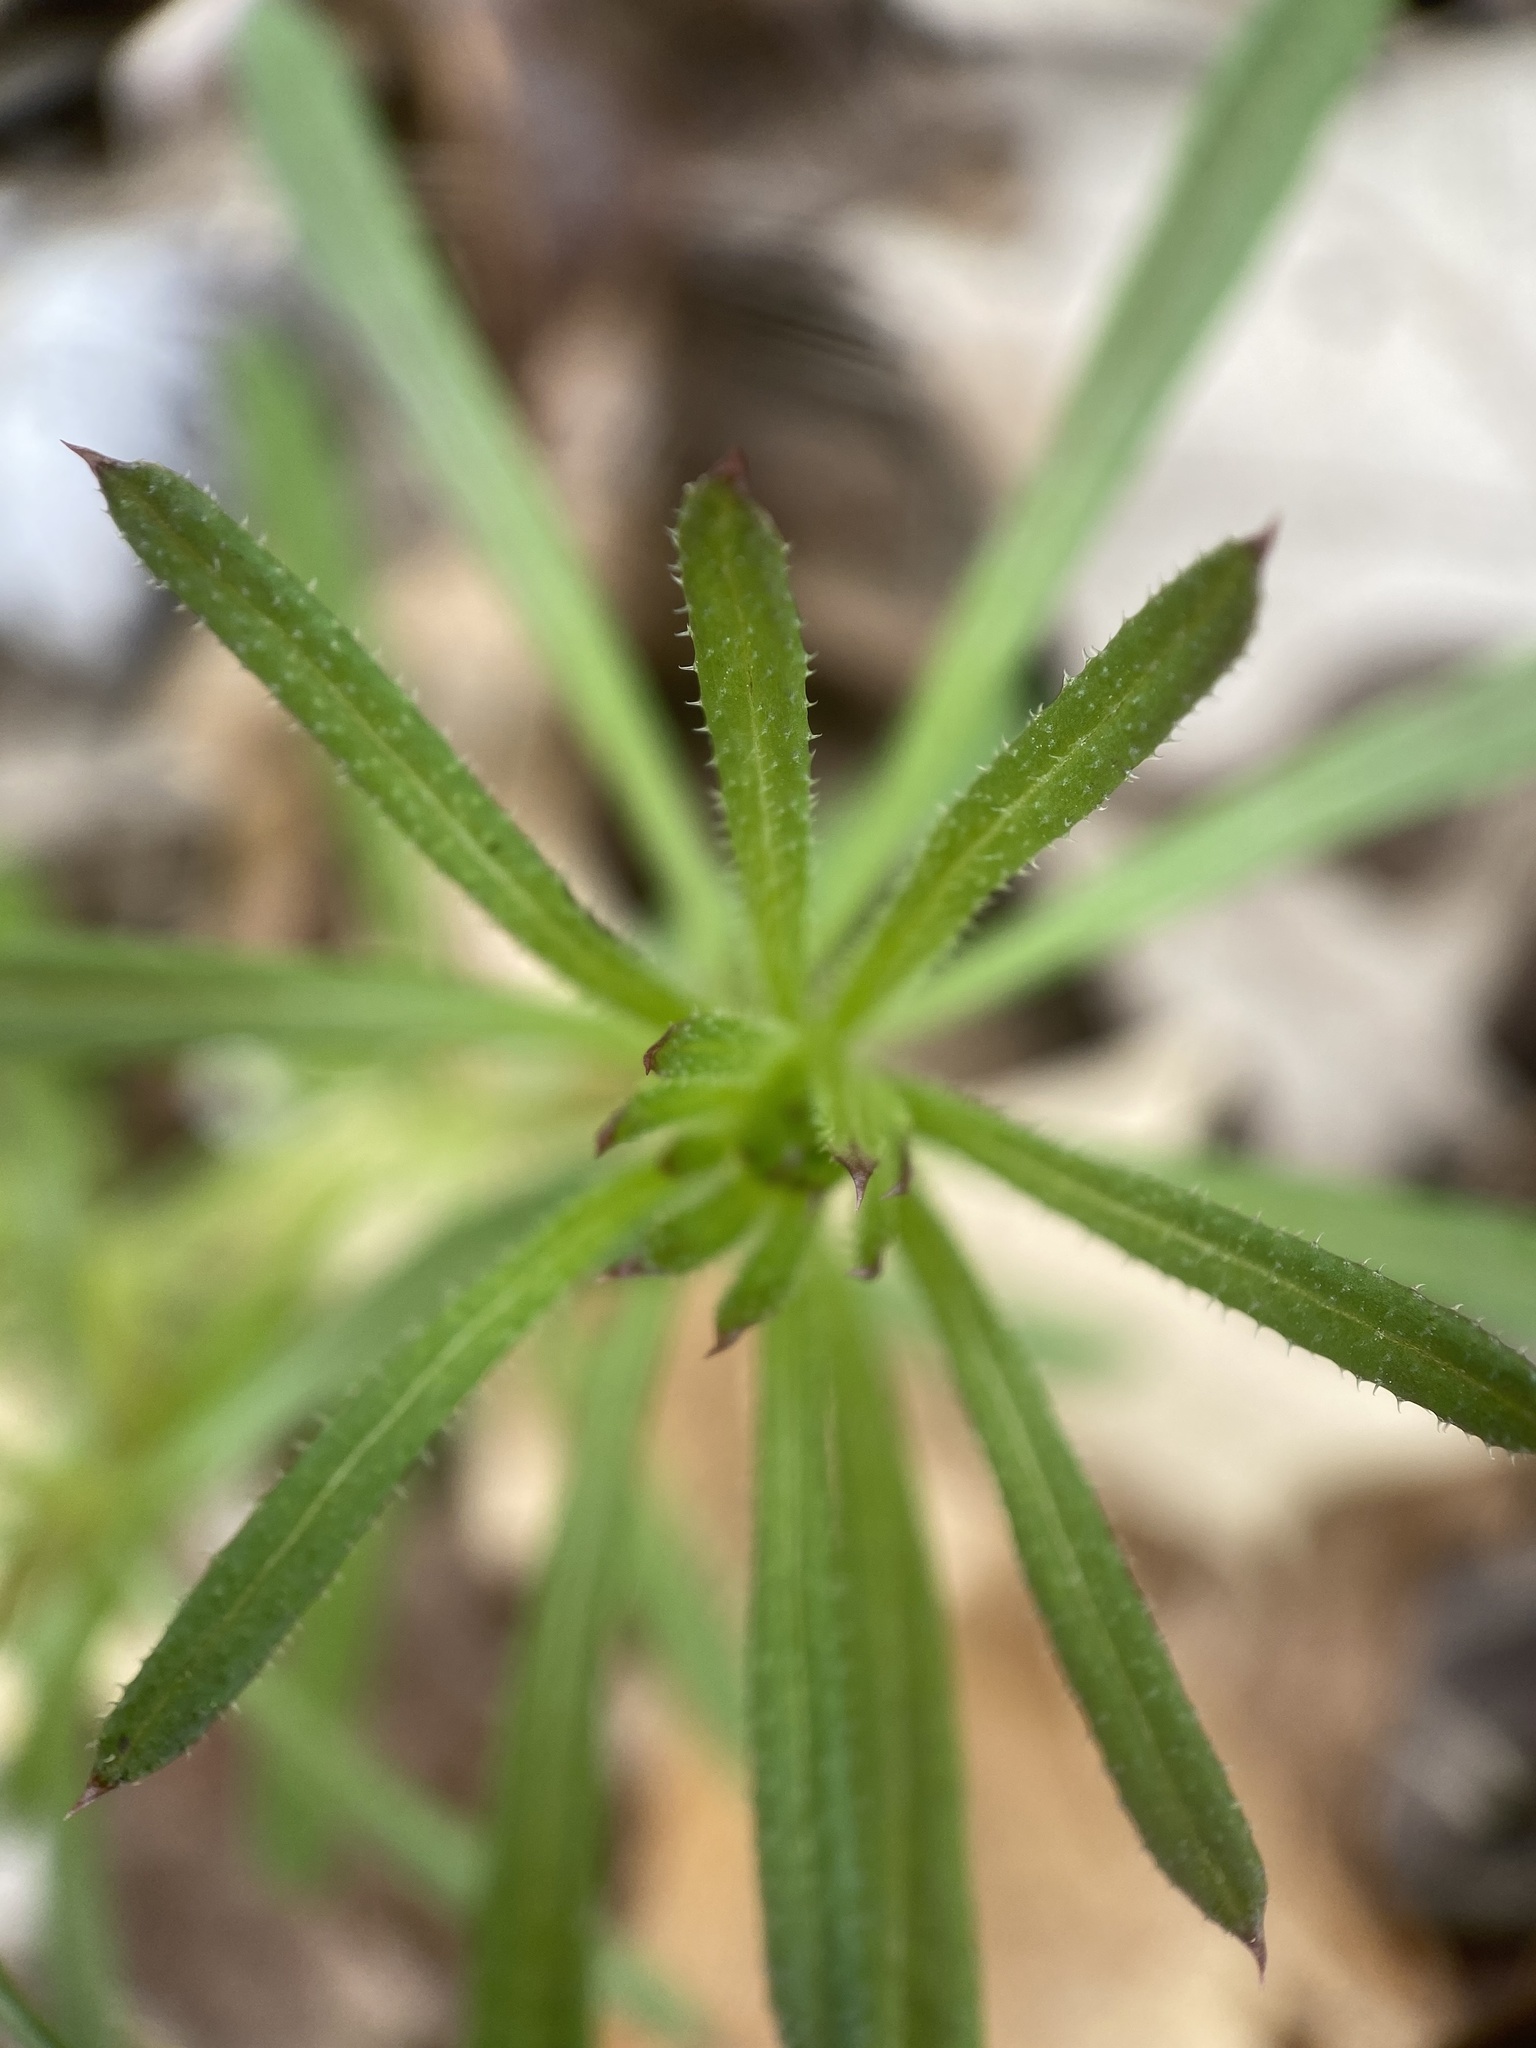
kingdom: Plantae
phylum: Tracheophyta
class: Magnoliopsida
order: Gentianales
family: Rubiaceae
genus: Galium
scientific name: Galium aparine
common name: Cleavers
